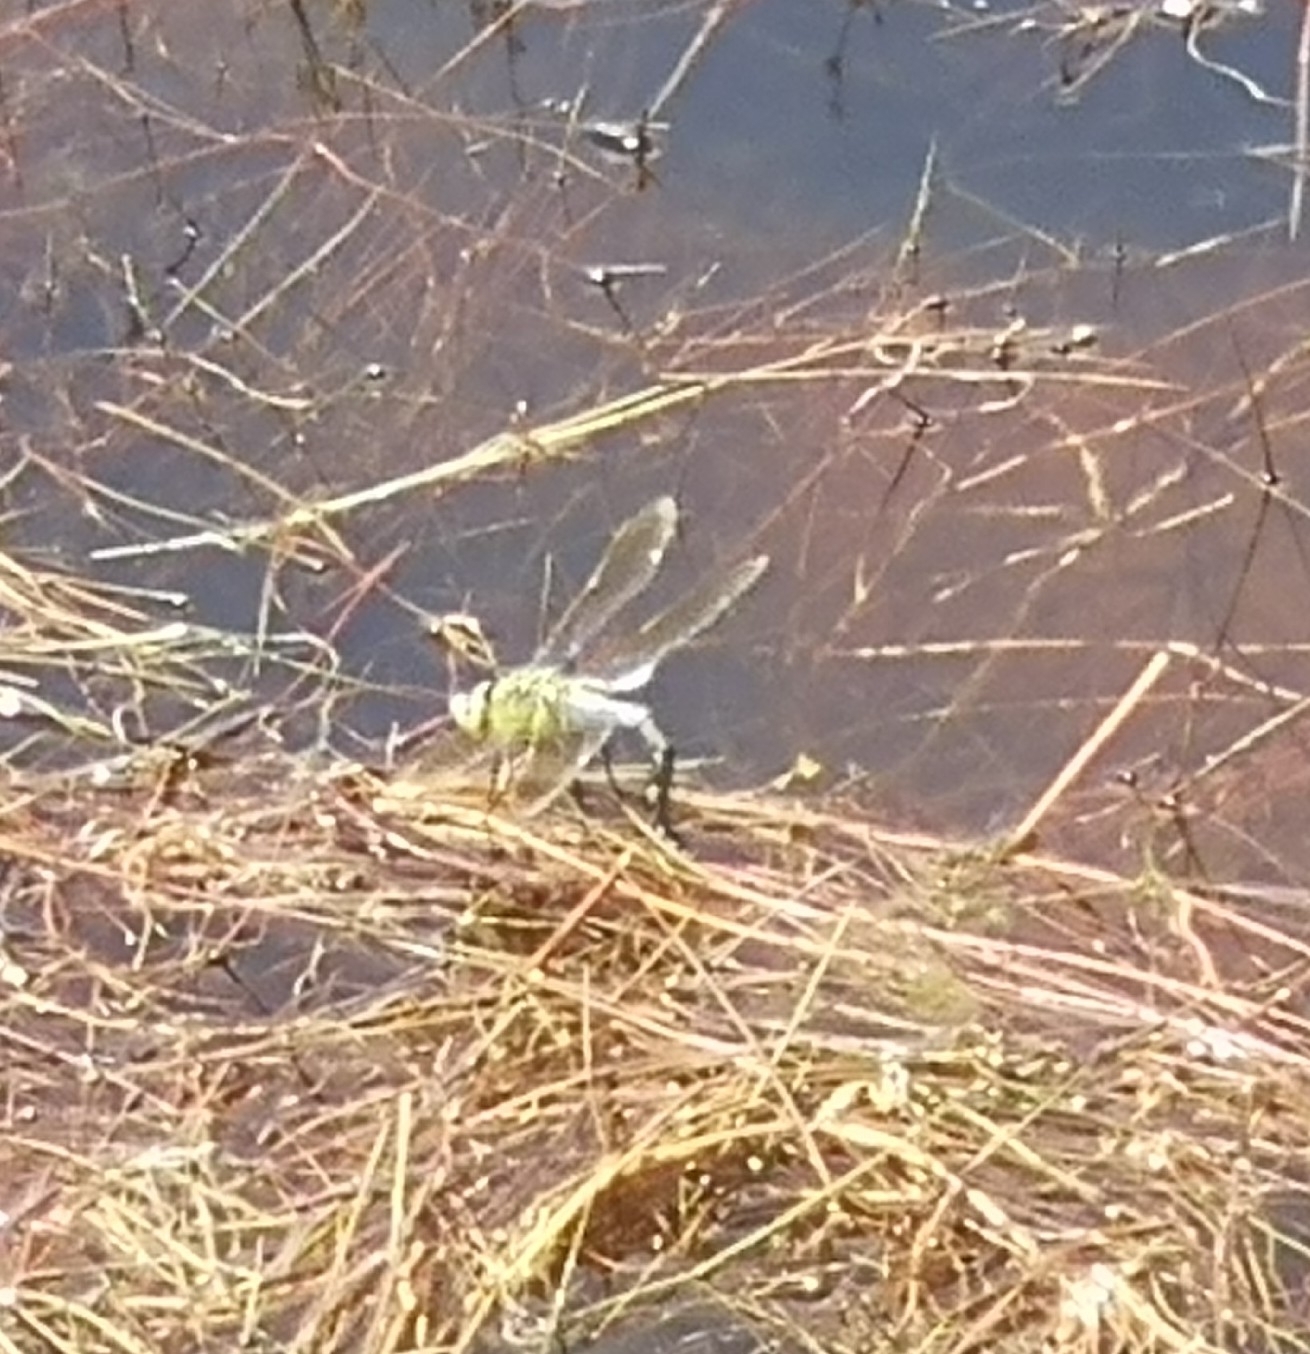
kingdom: Animalia
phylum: Arthropoda
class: Insecta
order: Odonata
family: Aeshnidae
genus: Anax
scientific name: Anax imperator
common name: Emperor dragonfly
